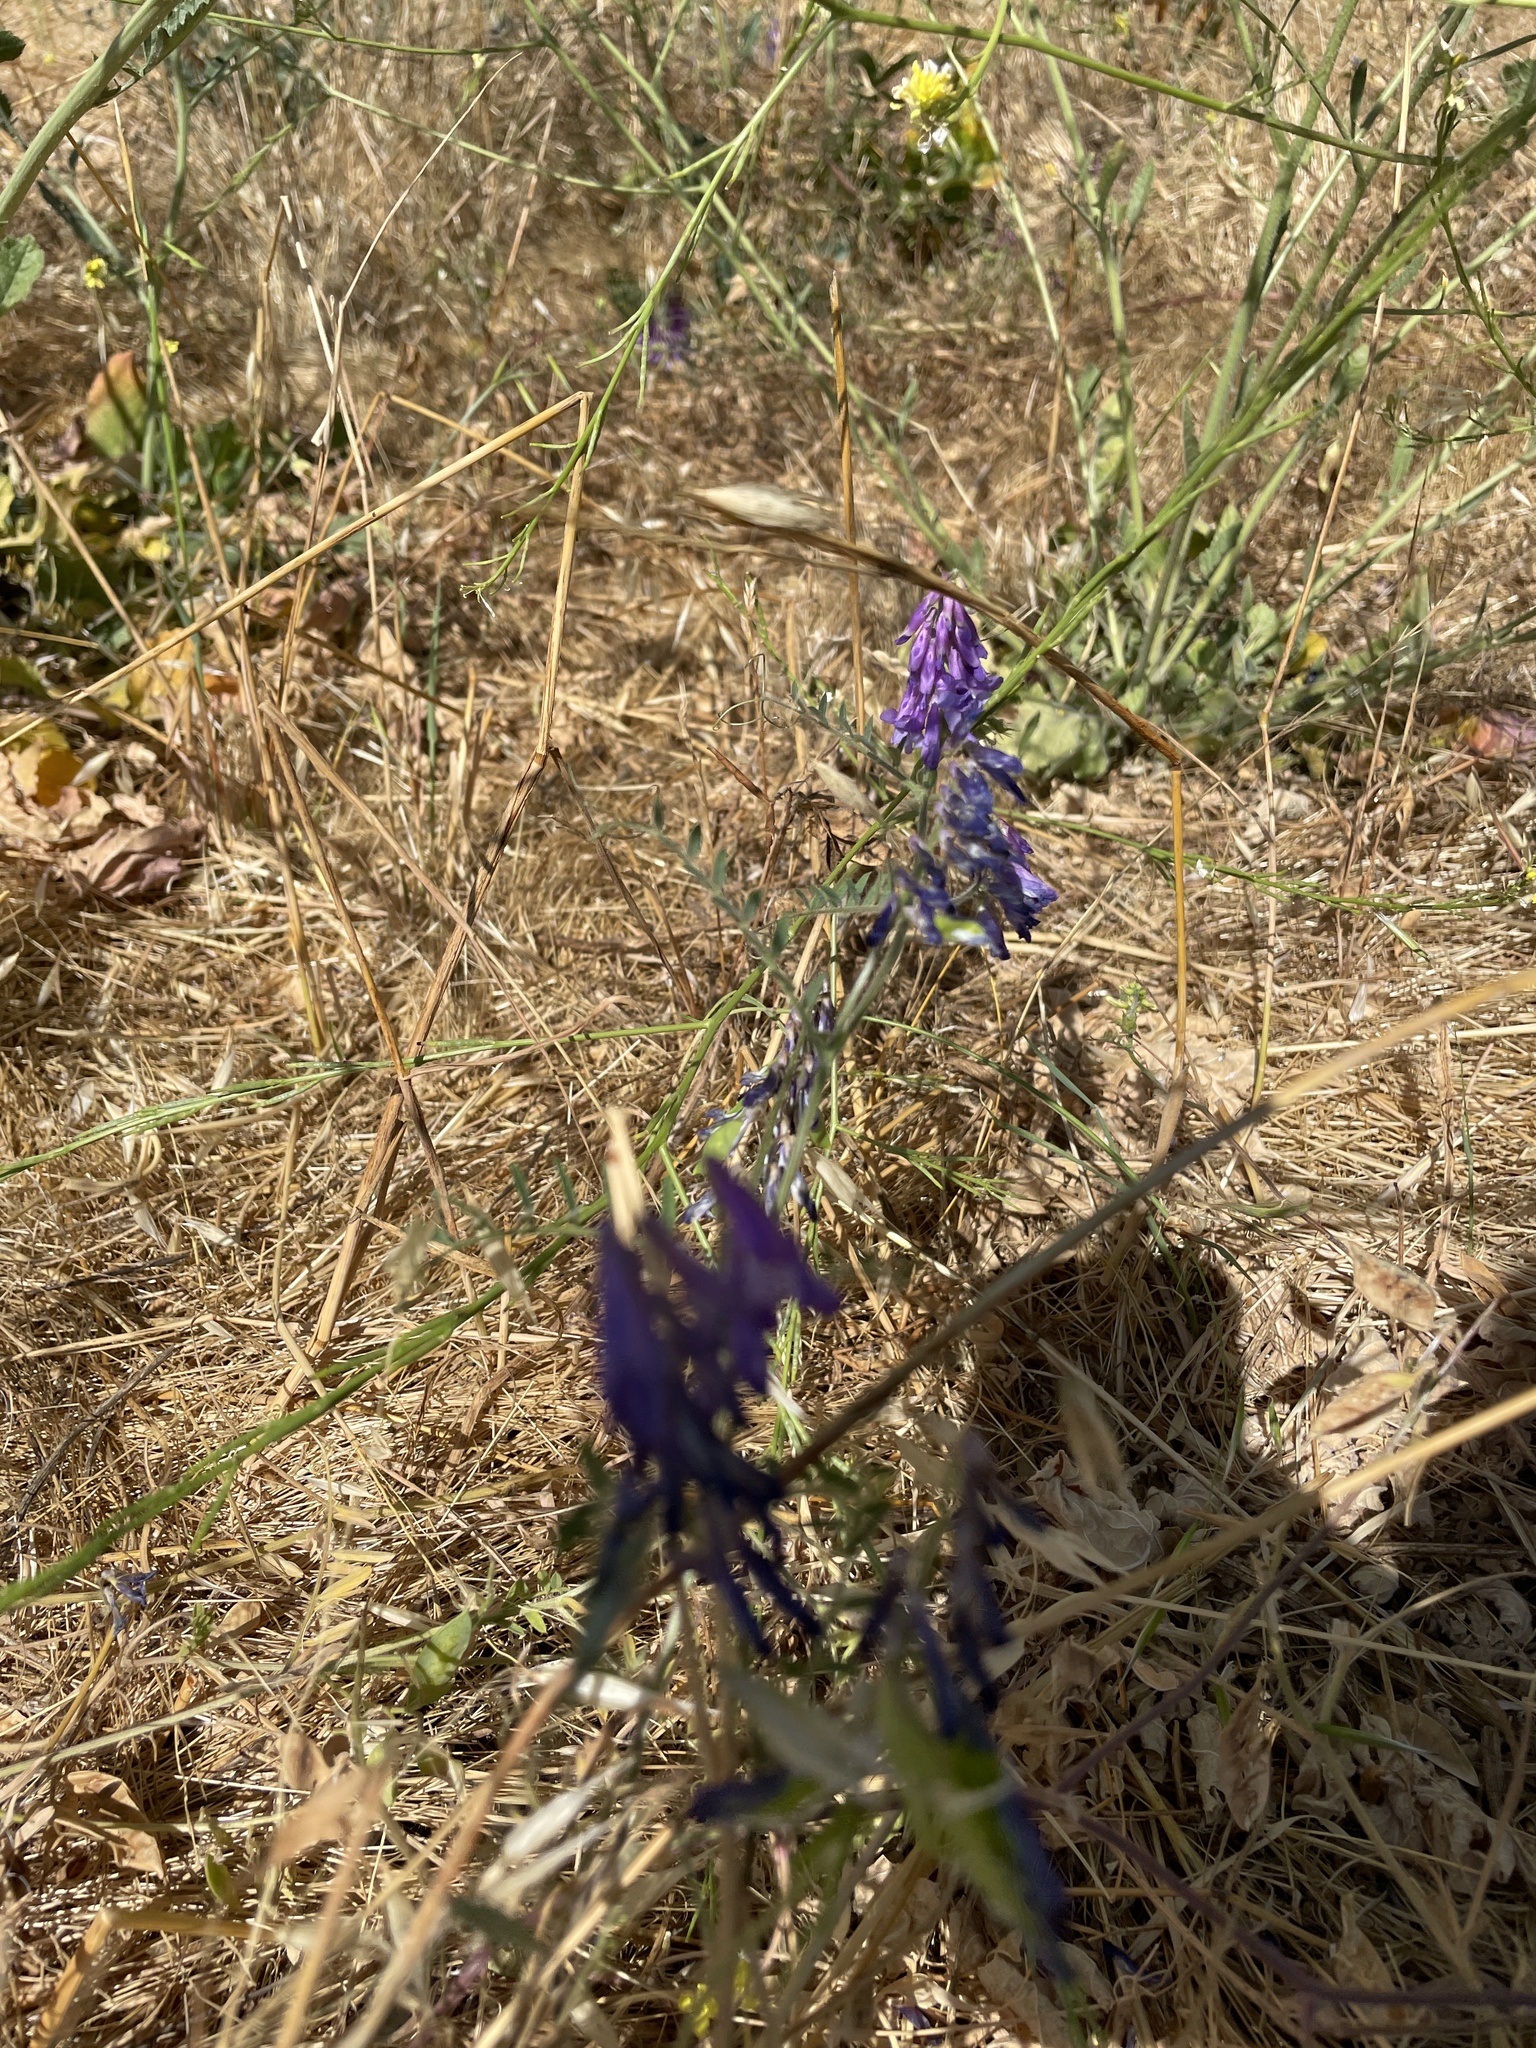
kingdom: Plantae
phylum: Tracheophyta
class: Magnoliopsida
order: Fabales
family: Fabaceae
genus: Vicia
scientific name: Vicia villosa
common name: Fodder vetch
